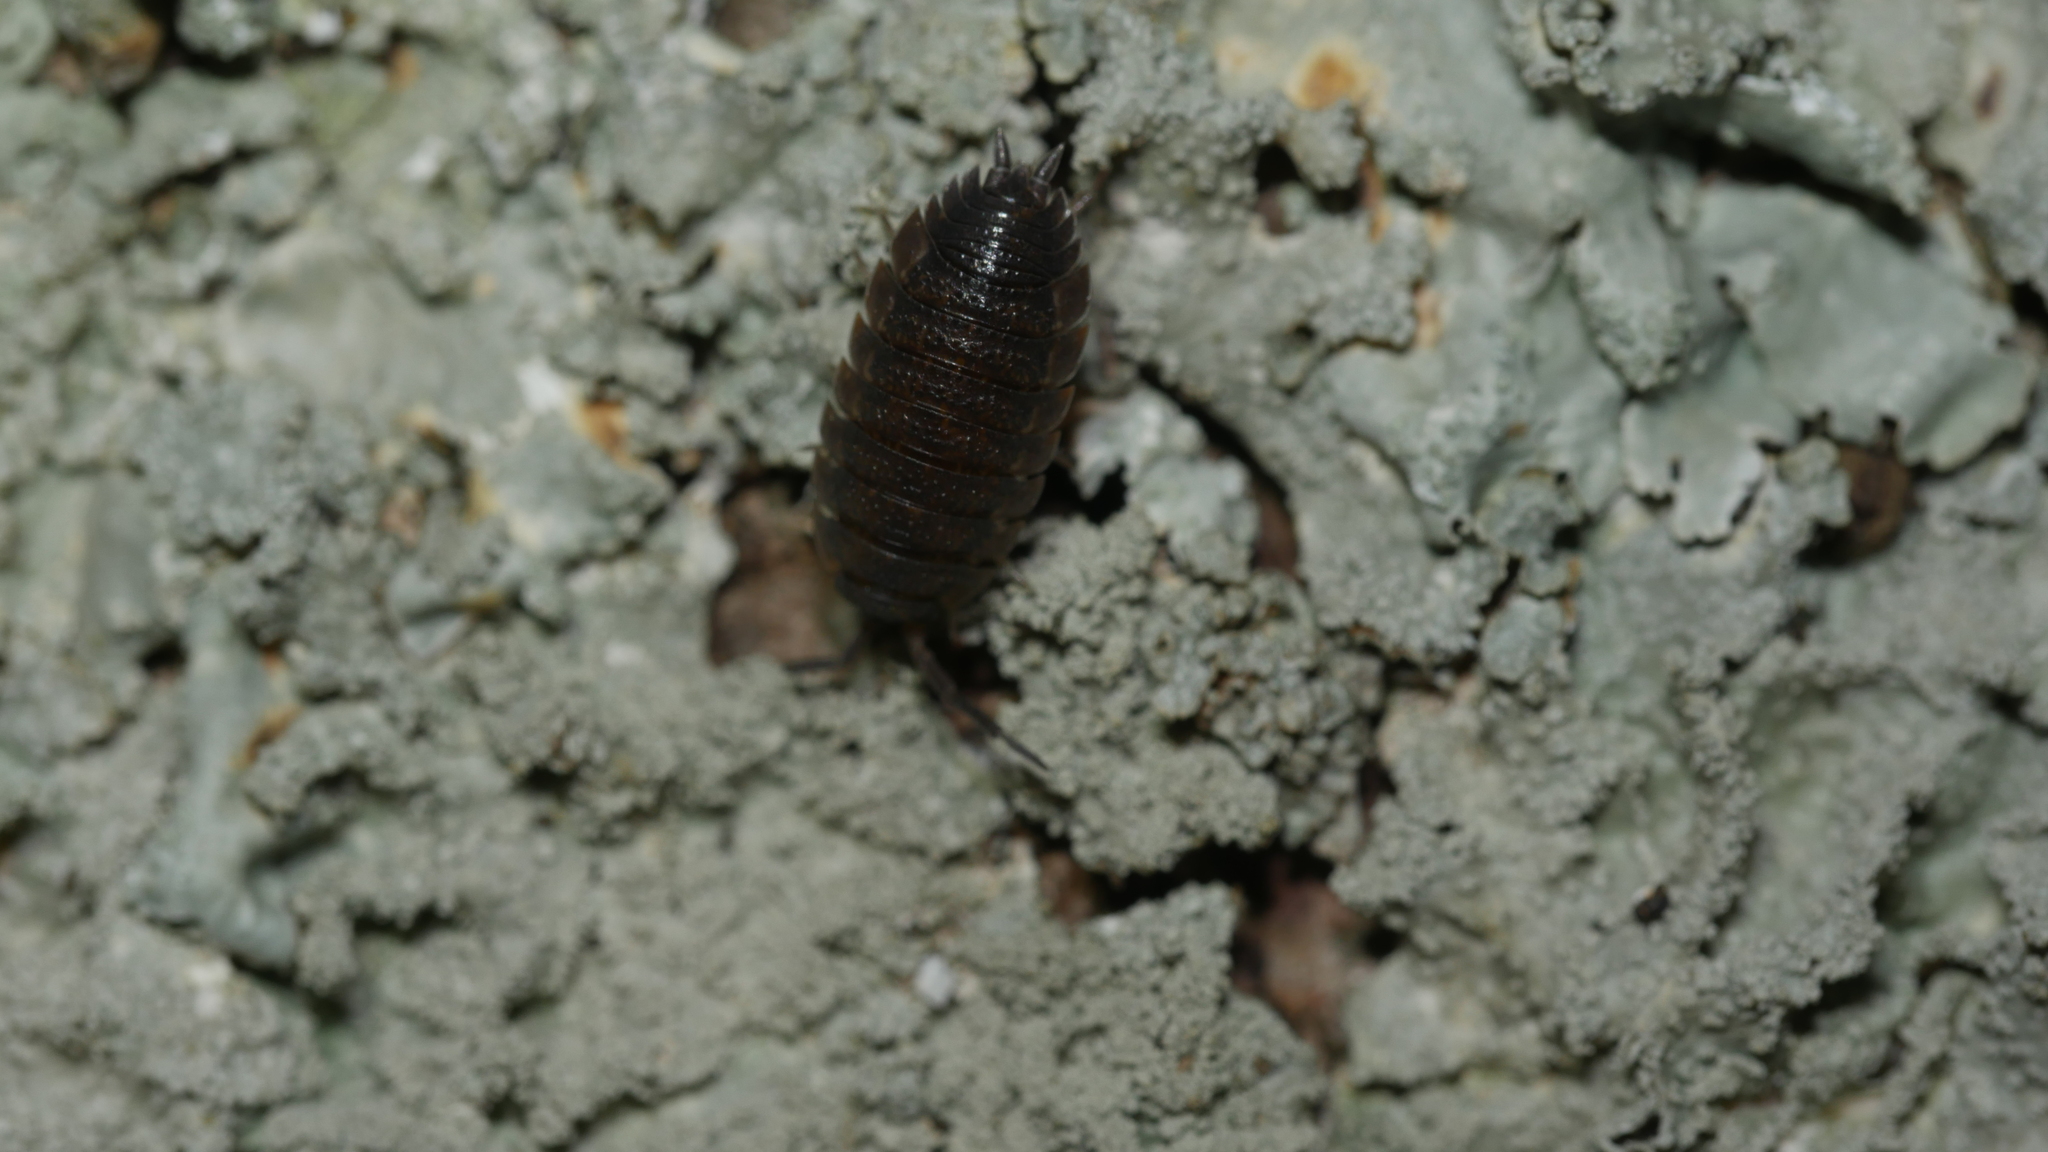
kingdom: Animalia
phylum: Arthropoda
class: Malacostraca
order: Isopoda
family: Porcellionidae
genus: Porcellio
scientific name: Porcellio scaber
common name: Common rough woodlouse
